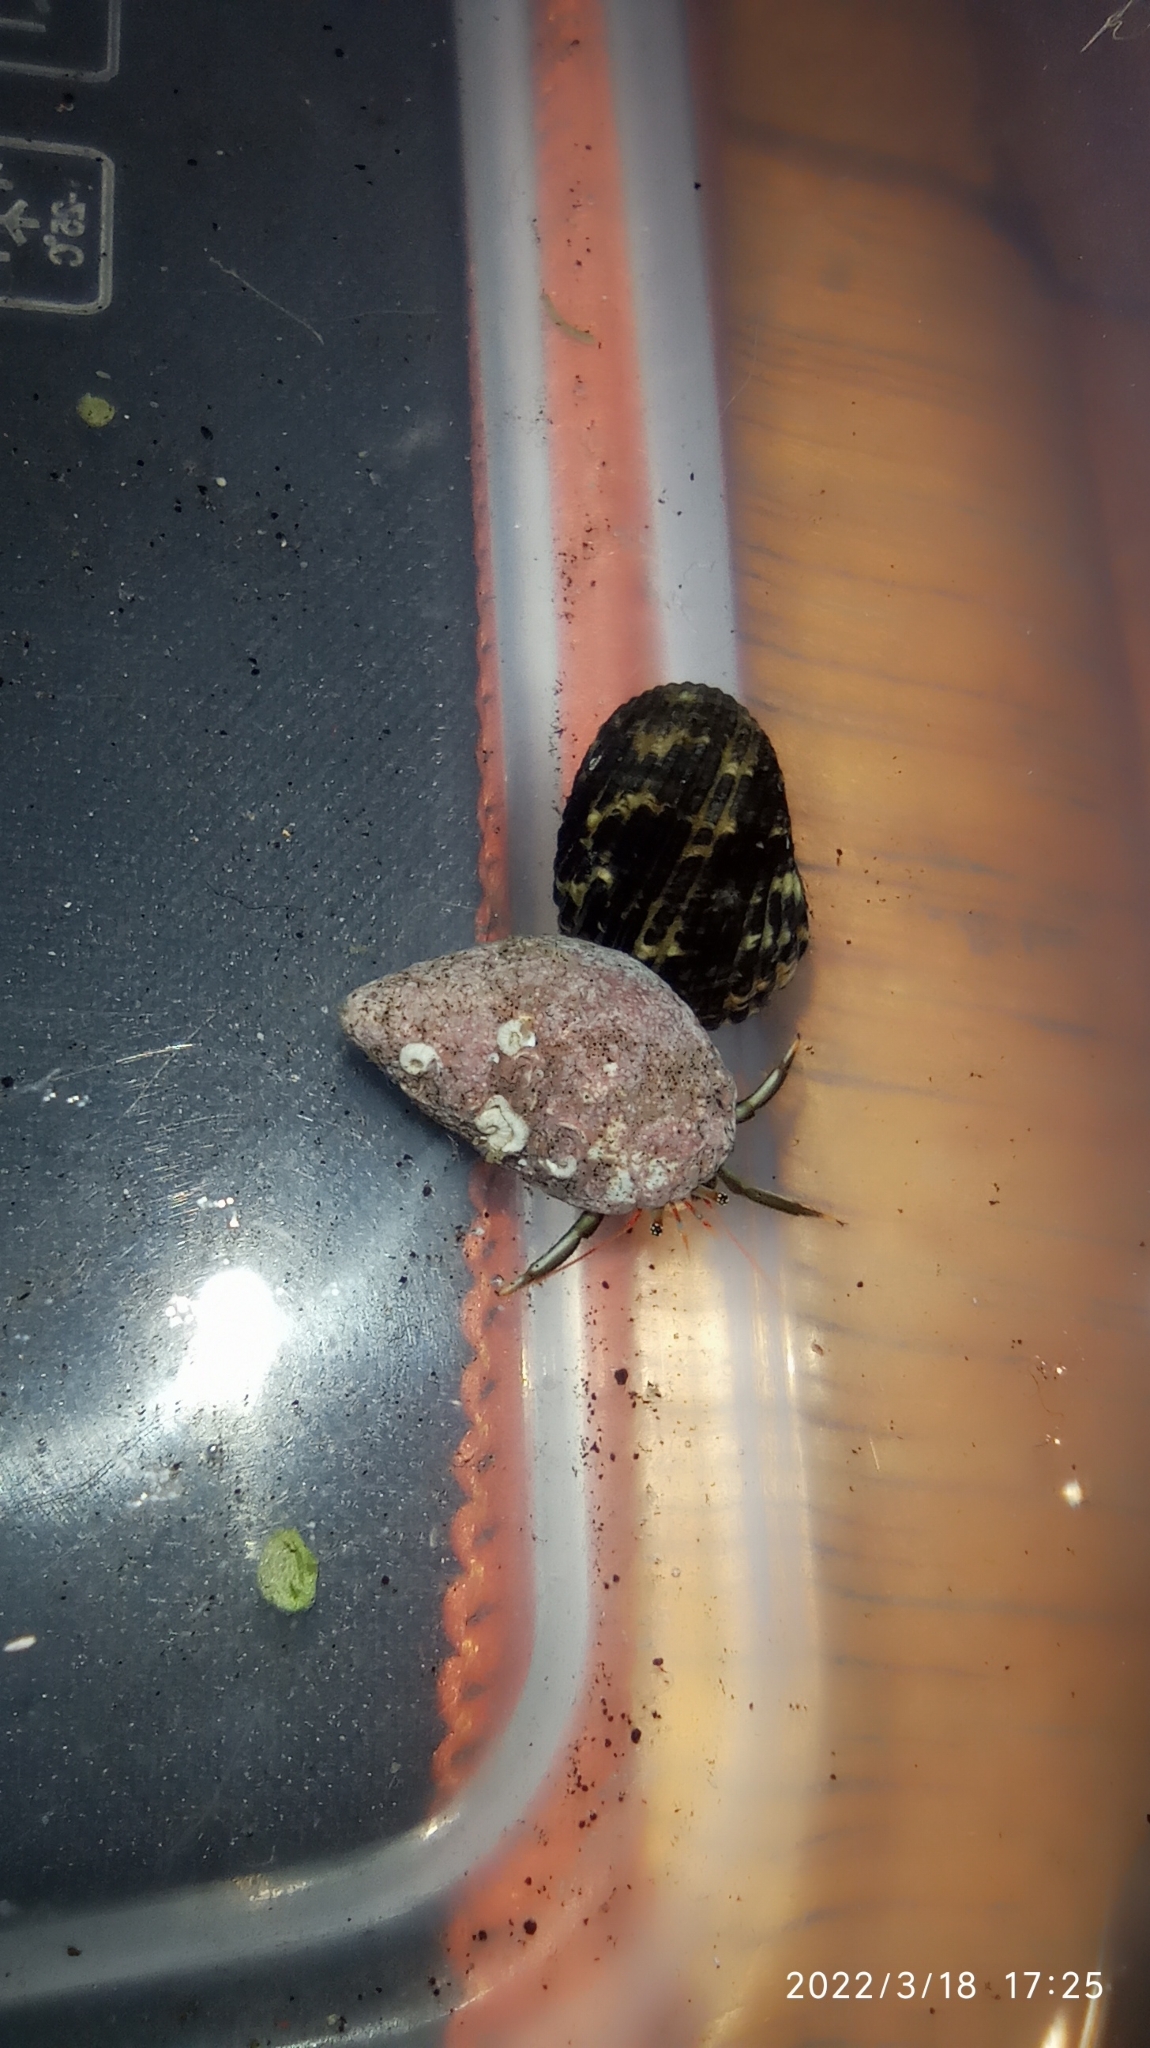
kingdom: Animalia
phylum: Arthropoda
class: Malacostraca
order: Decapoda
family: Diogenidae
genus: Clibanarius
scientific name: Clibanarius brasiliensis
